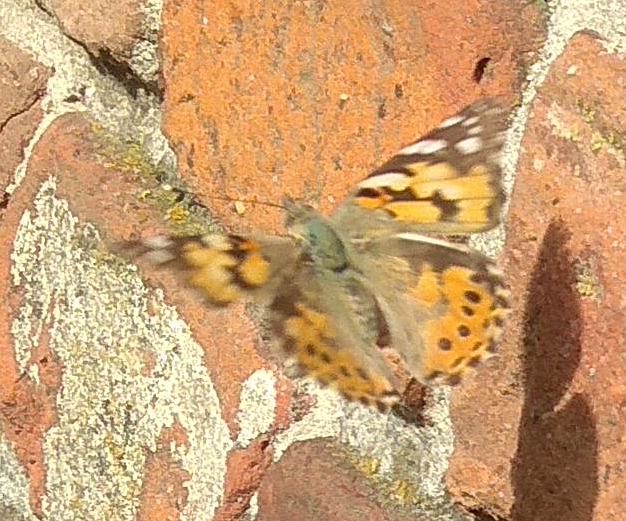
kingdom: Animalia
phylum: Arthropoda
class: Insecta
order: Lepidoptera
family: Nymphalidae
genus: Vanessa
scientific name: Vanessa cardui
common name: Painted lady
